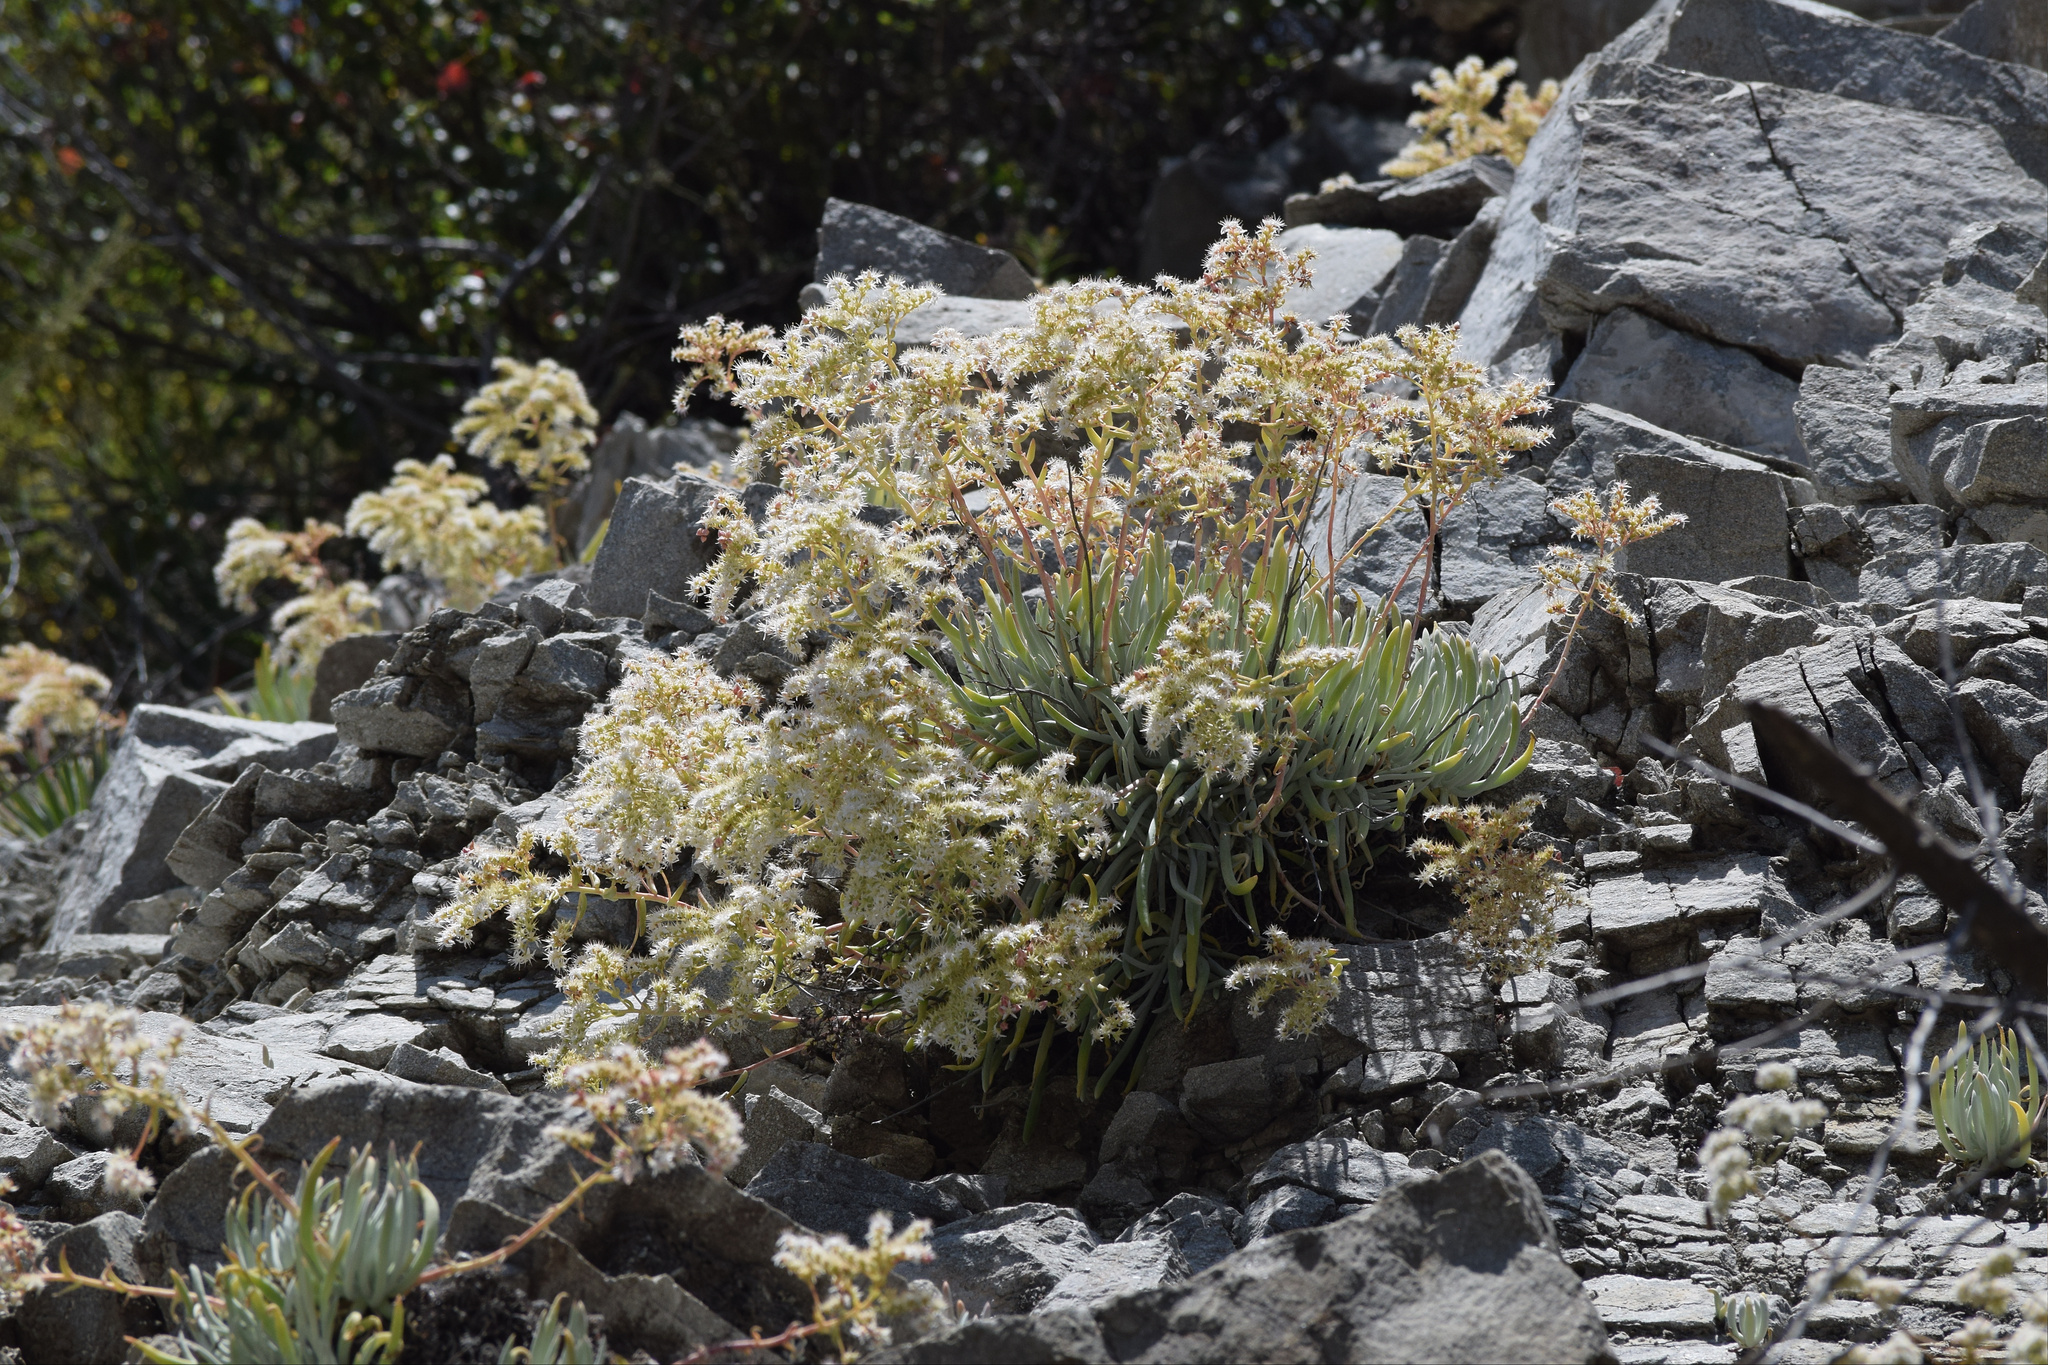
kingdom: Plantae
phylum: Tracheophyta
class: Magnoliopsida
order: Saxifragales
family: Crassulaceae
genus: Dudleya
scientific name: Dudleya densiflora
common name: San gabriel mountains dudleya
